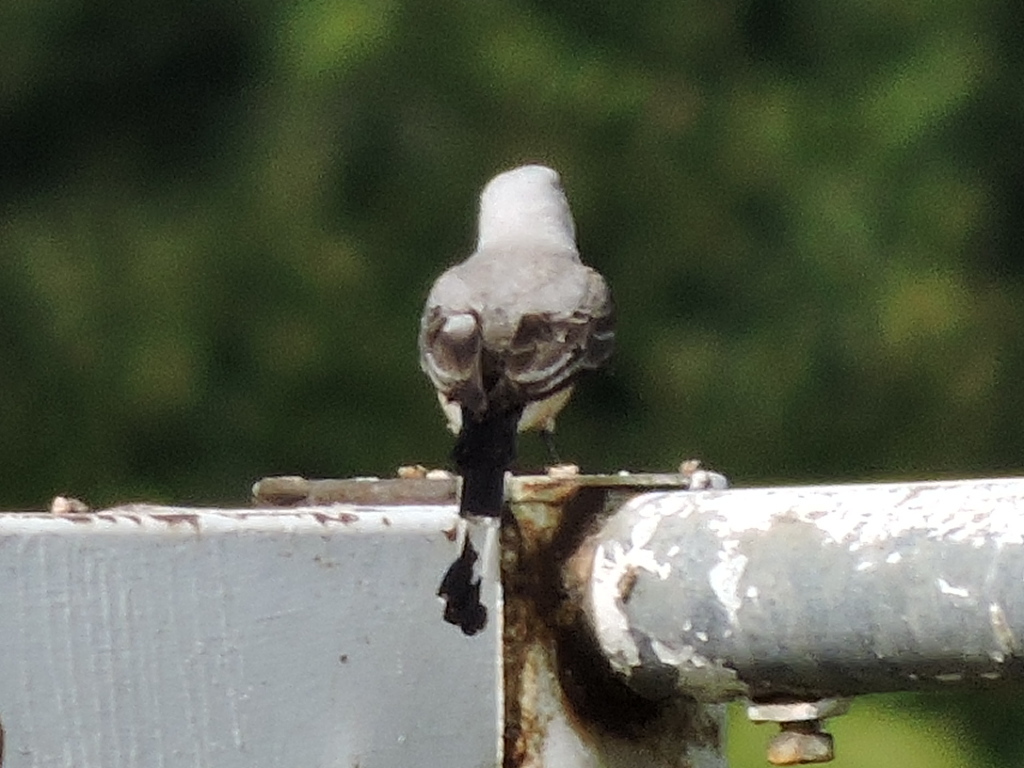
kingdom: Animalia
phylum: Chordata
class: Aves
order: Passeriformes
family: Tyrannidae
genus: Tyrannus
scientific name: Tyrannus forficatus
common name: Scissor-tailed flycatcher
